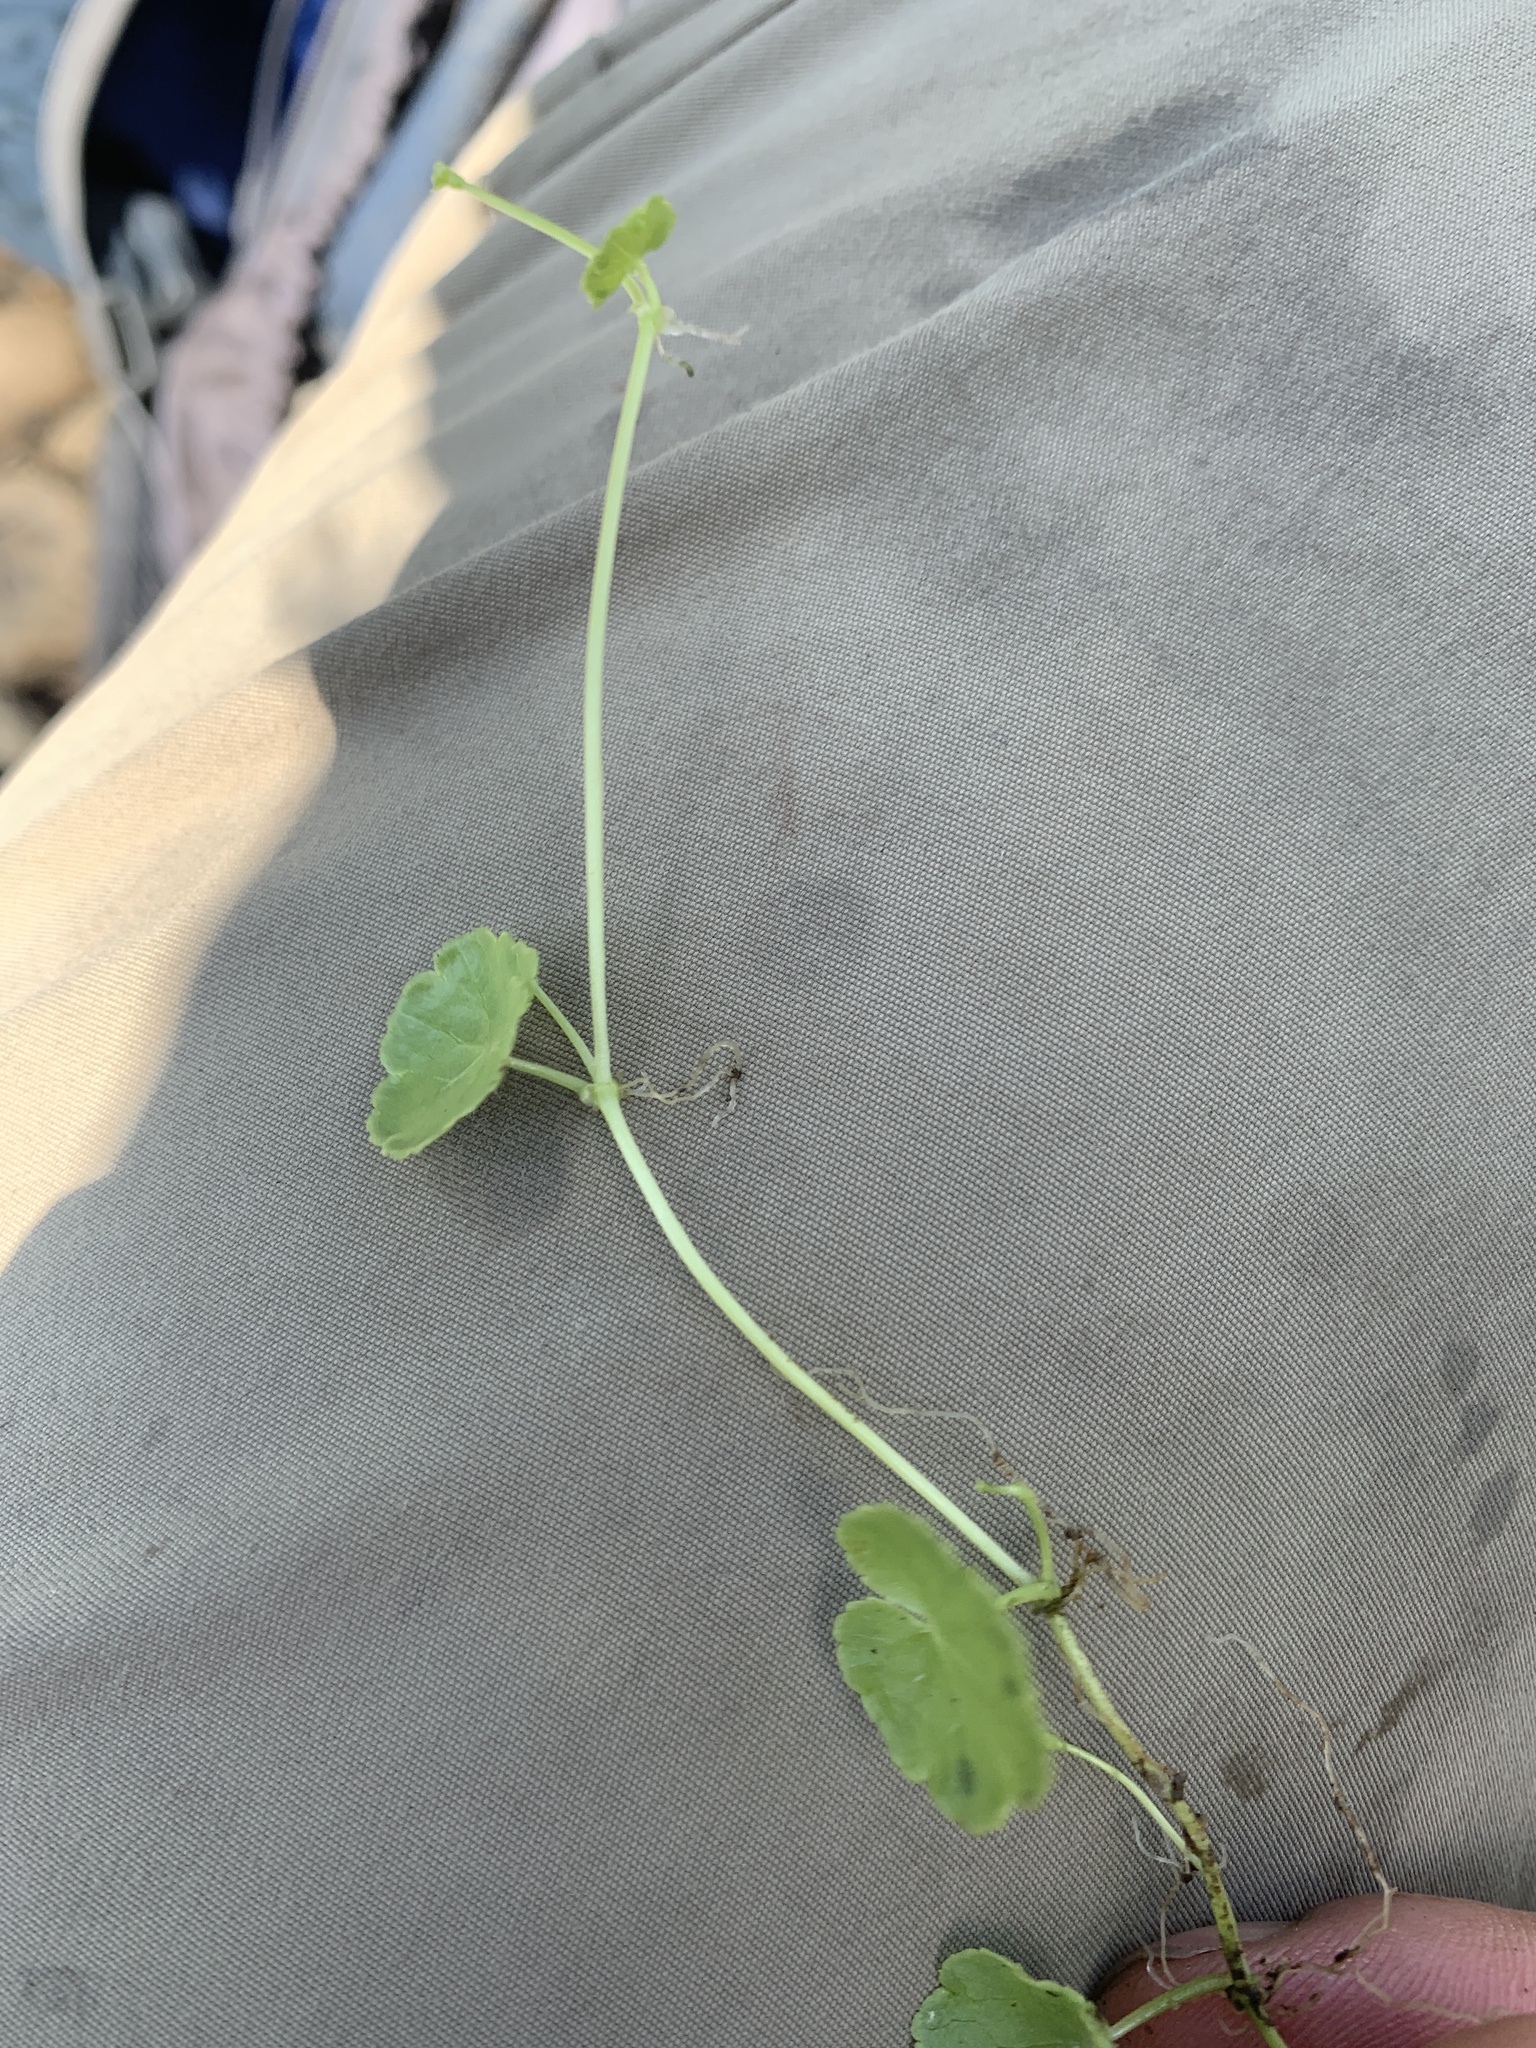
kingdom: Plantae
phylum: Tracheophyta
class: Magnoliopsida
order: Apiales
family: Araliaceae
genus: Hydrocotyle
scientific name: Hydrocotyle americana
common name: American water-pennywort
